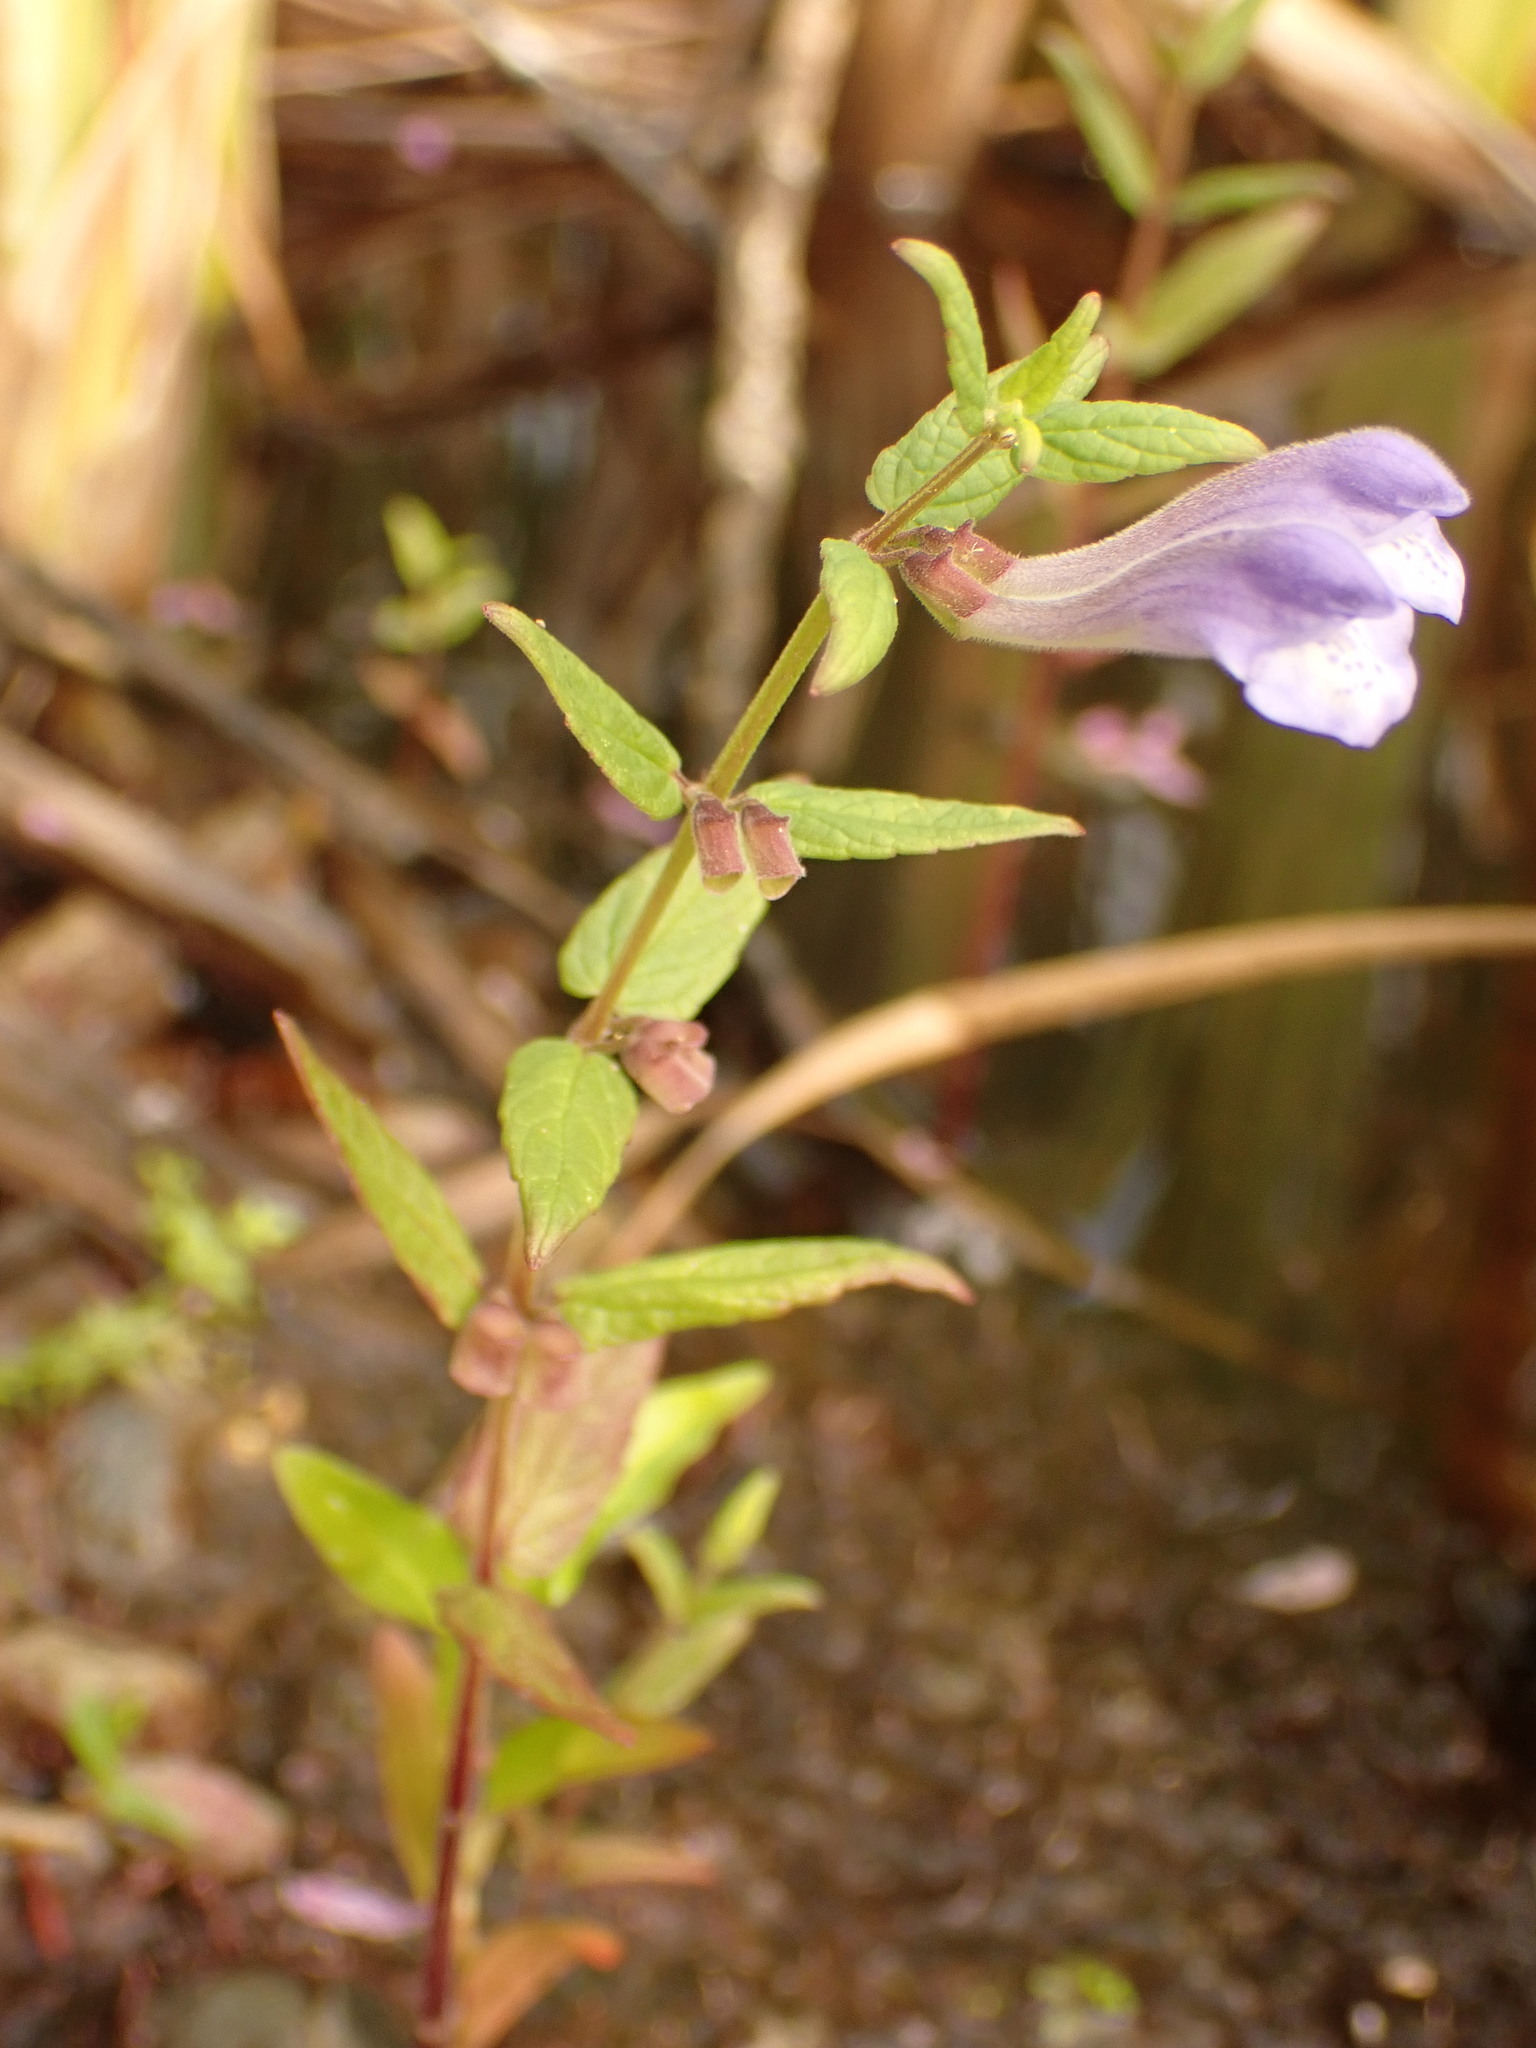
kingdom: Plantae
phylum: Tracheophyta
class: Magnoliopsida
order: Lamiales
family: Lamiaceae
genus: Scutellaria
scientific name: Scutellaria galericulata
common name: Skullcap
